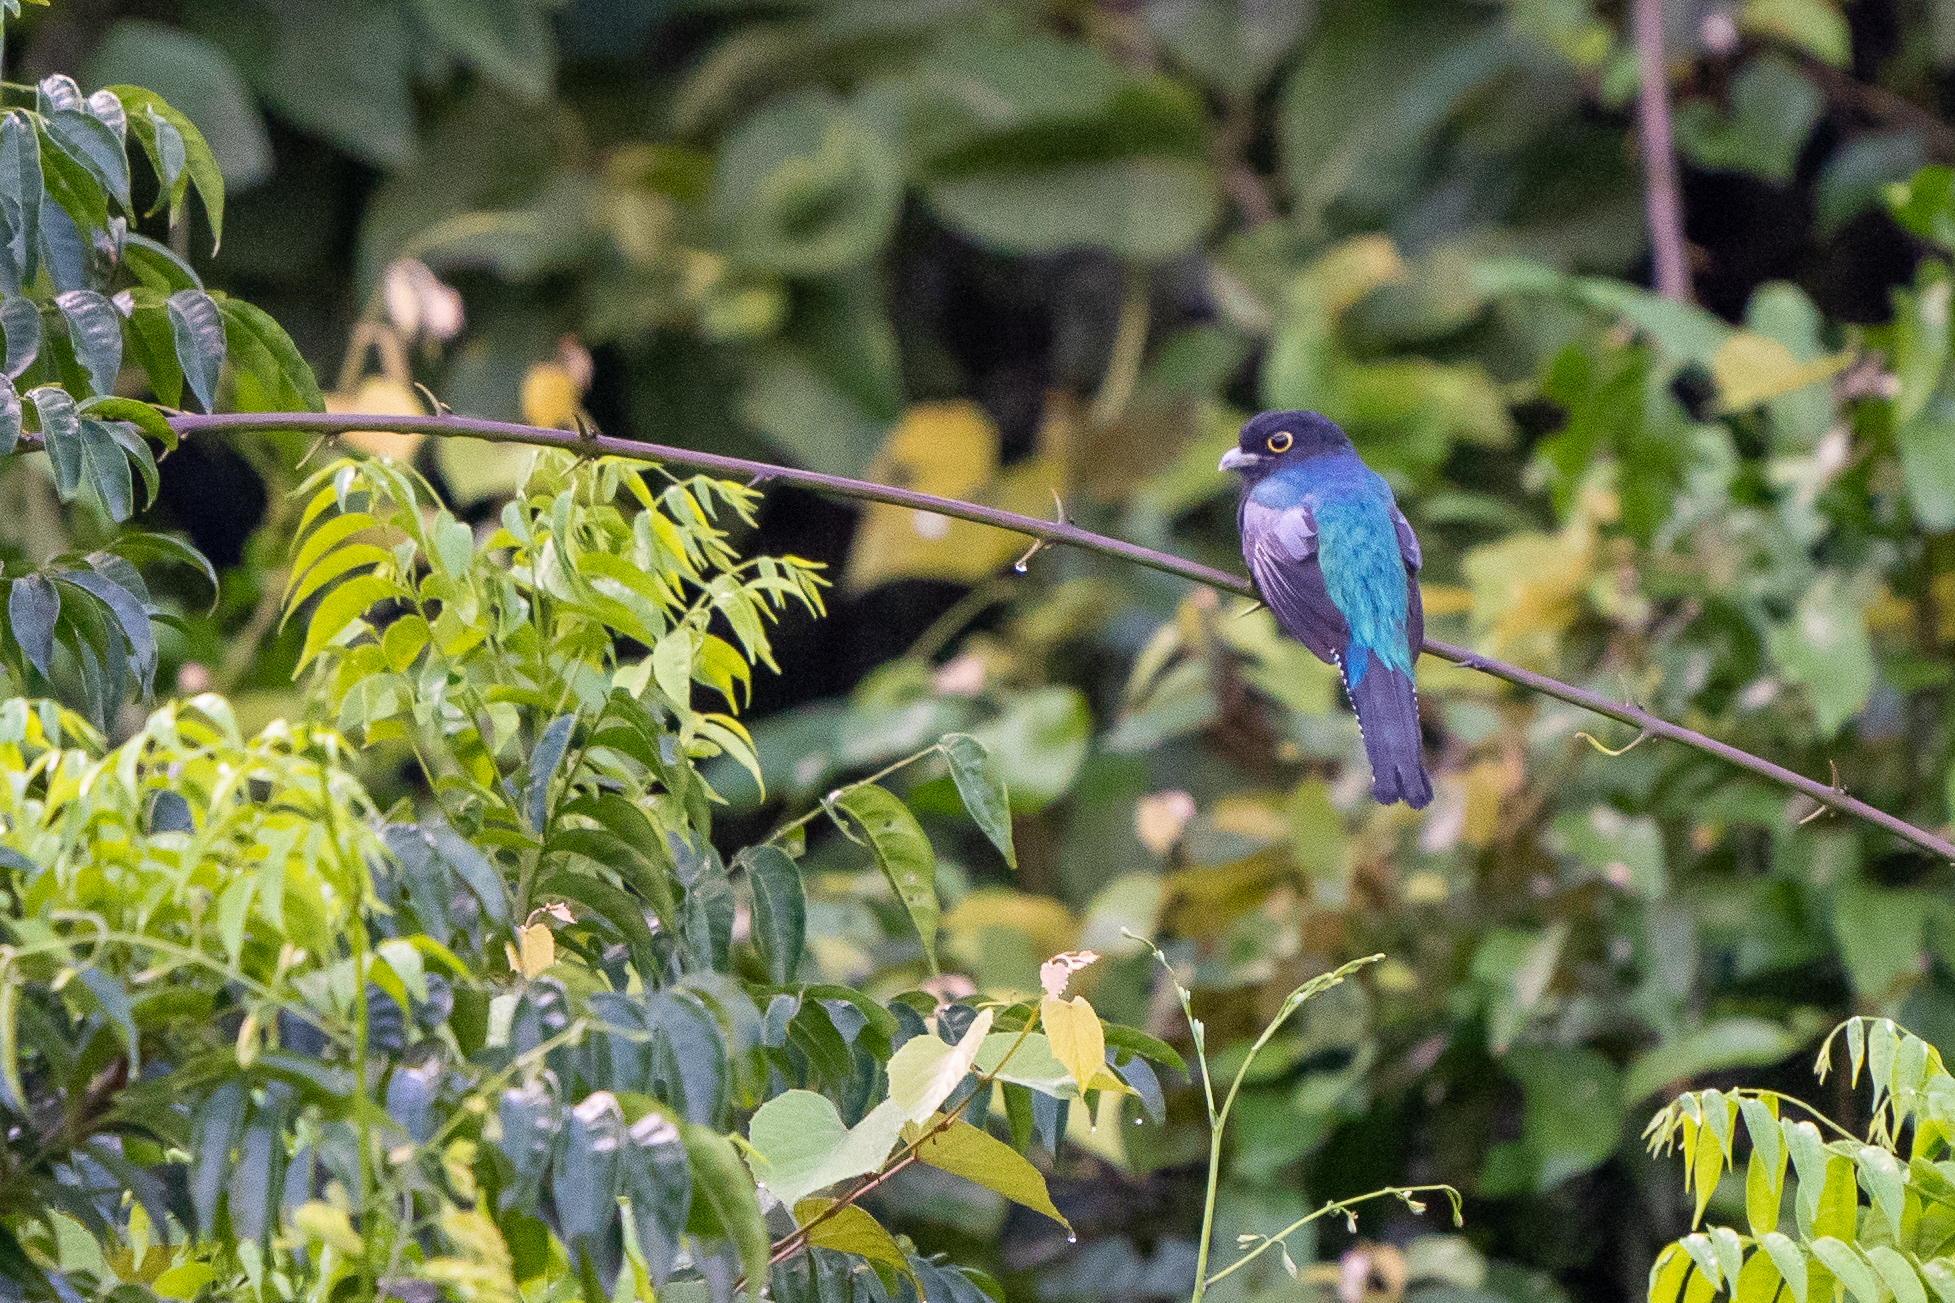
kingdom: Animalia
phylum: Chordata
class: Aves
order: Trogoniformes
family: Trogonidae
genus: Trogon
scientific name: Trogon caligatus
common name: Gartered trogon
